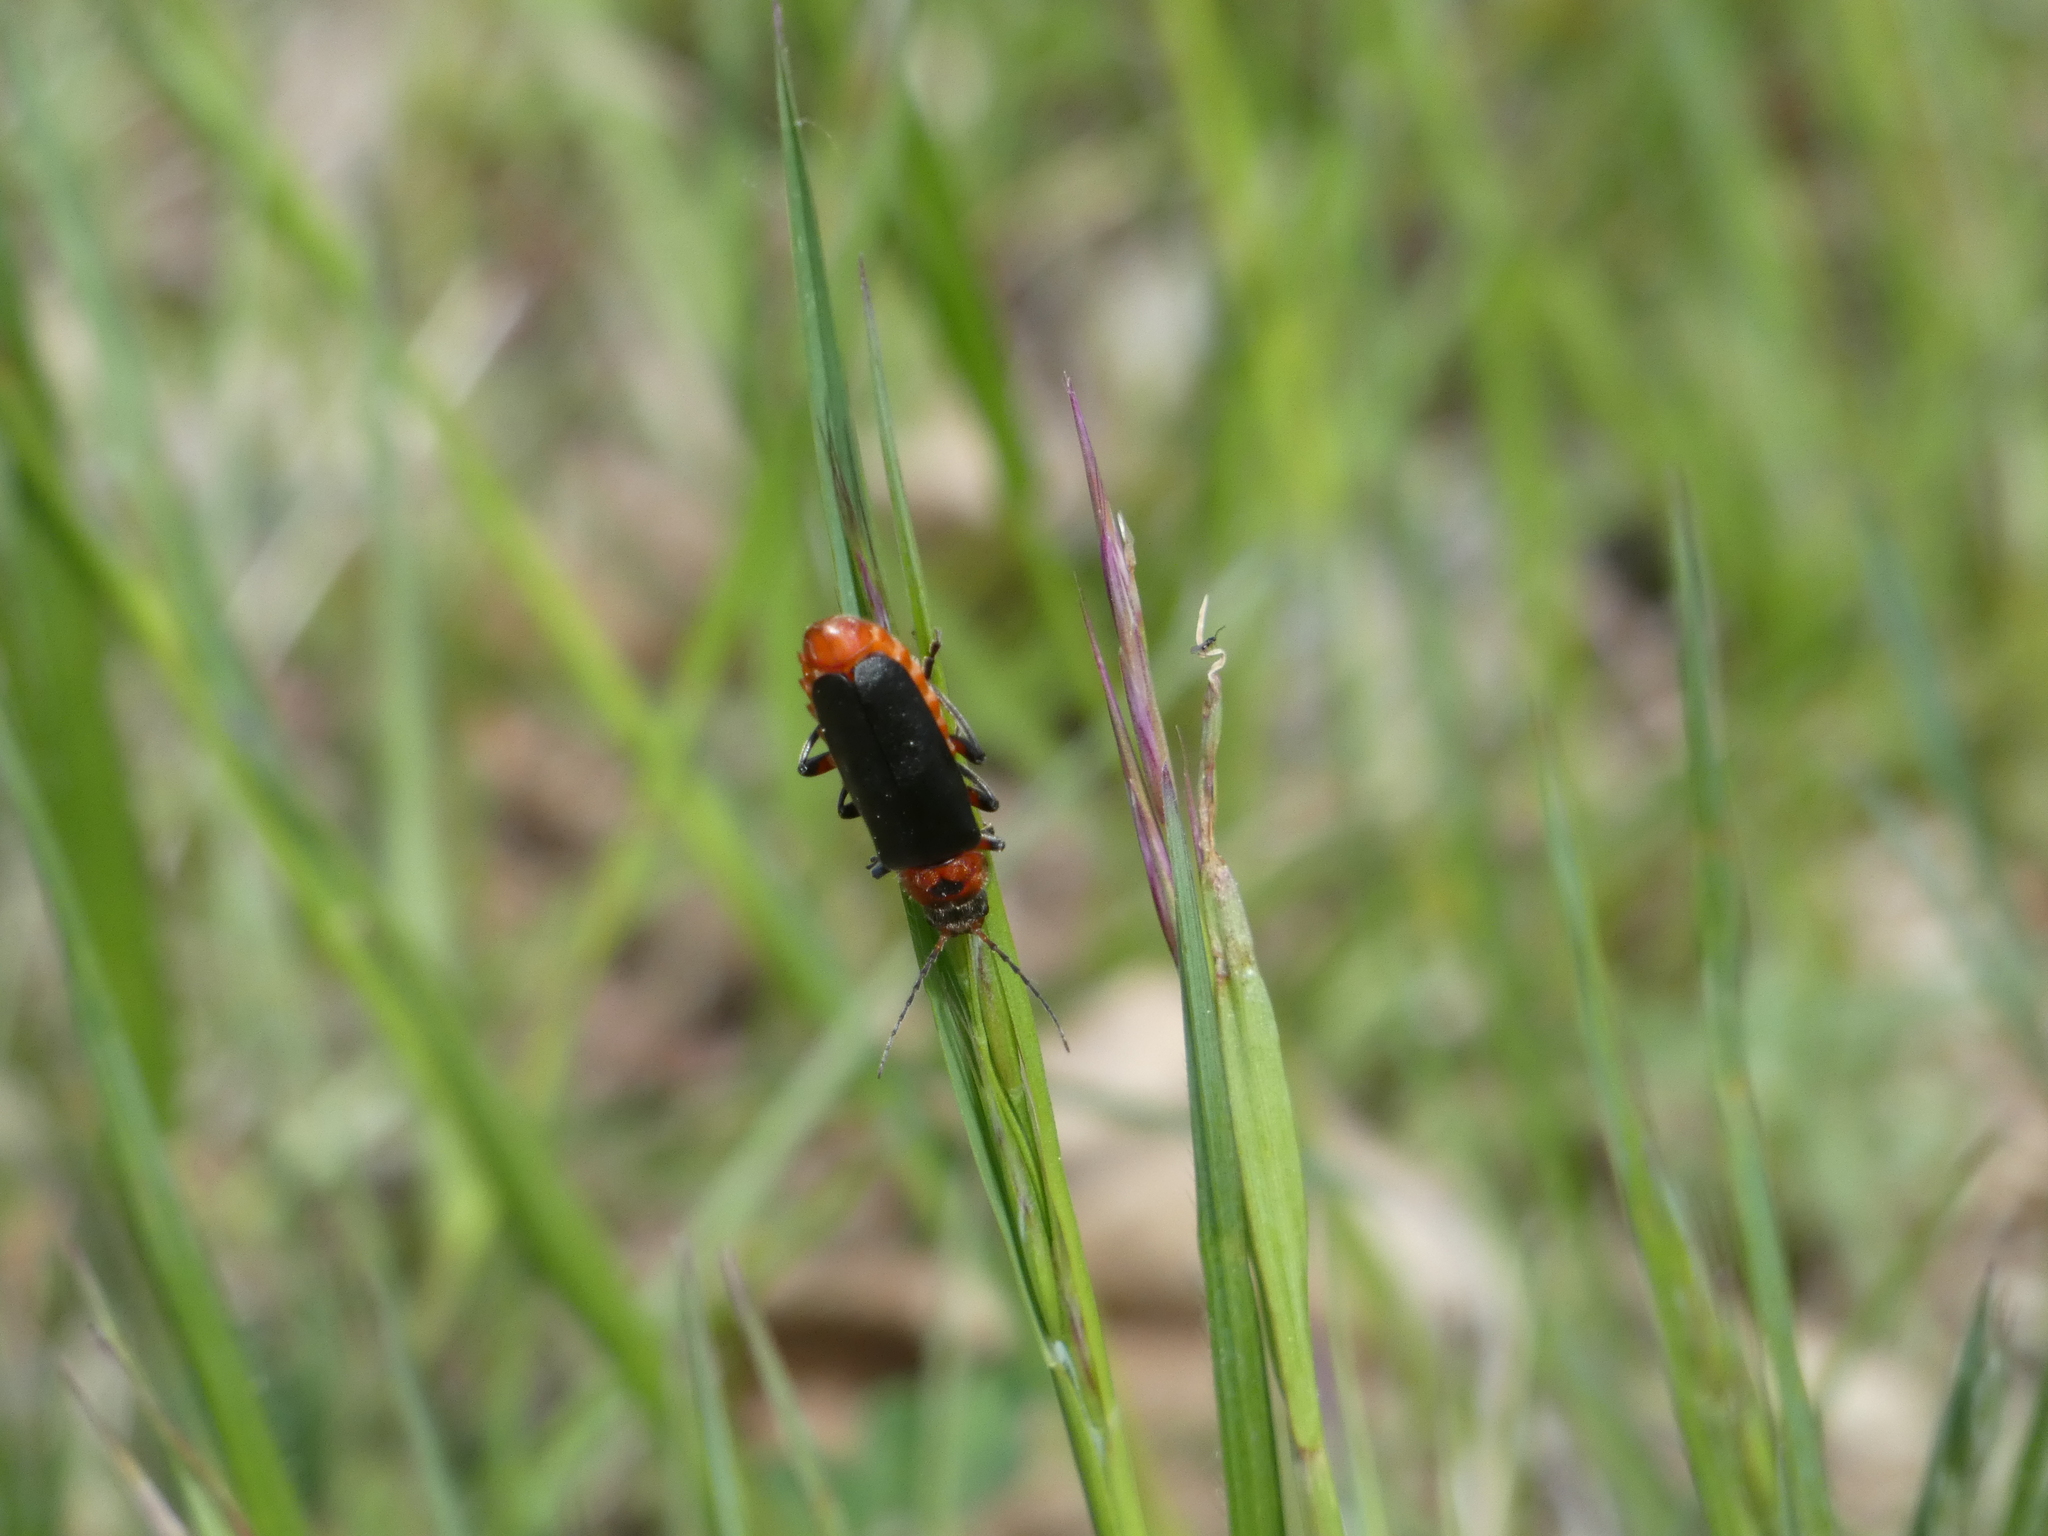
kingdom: Animalia
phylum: Arthropoda
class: Insecta
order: Coleoptera
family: Cantharidae
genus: Cantharis
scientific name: Cantharis rustica
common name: Soldier beetle
